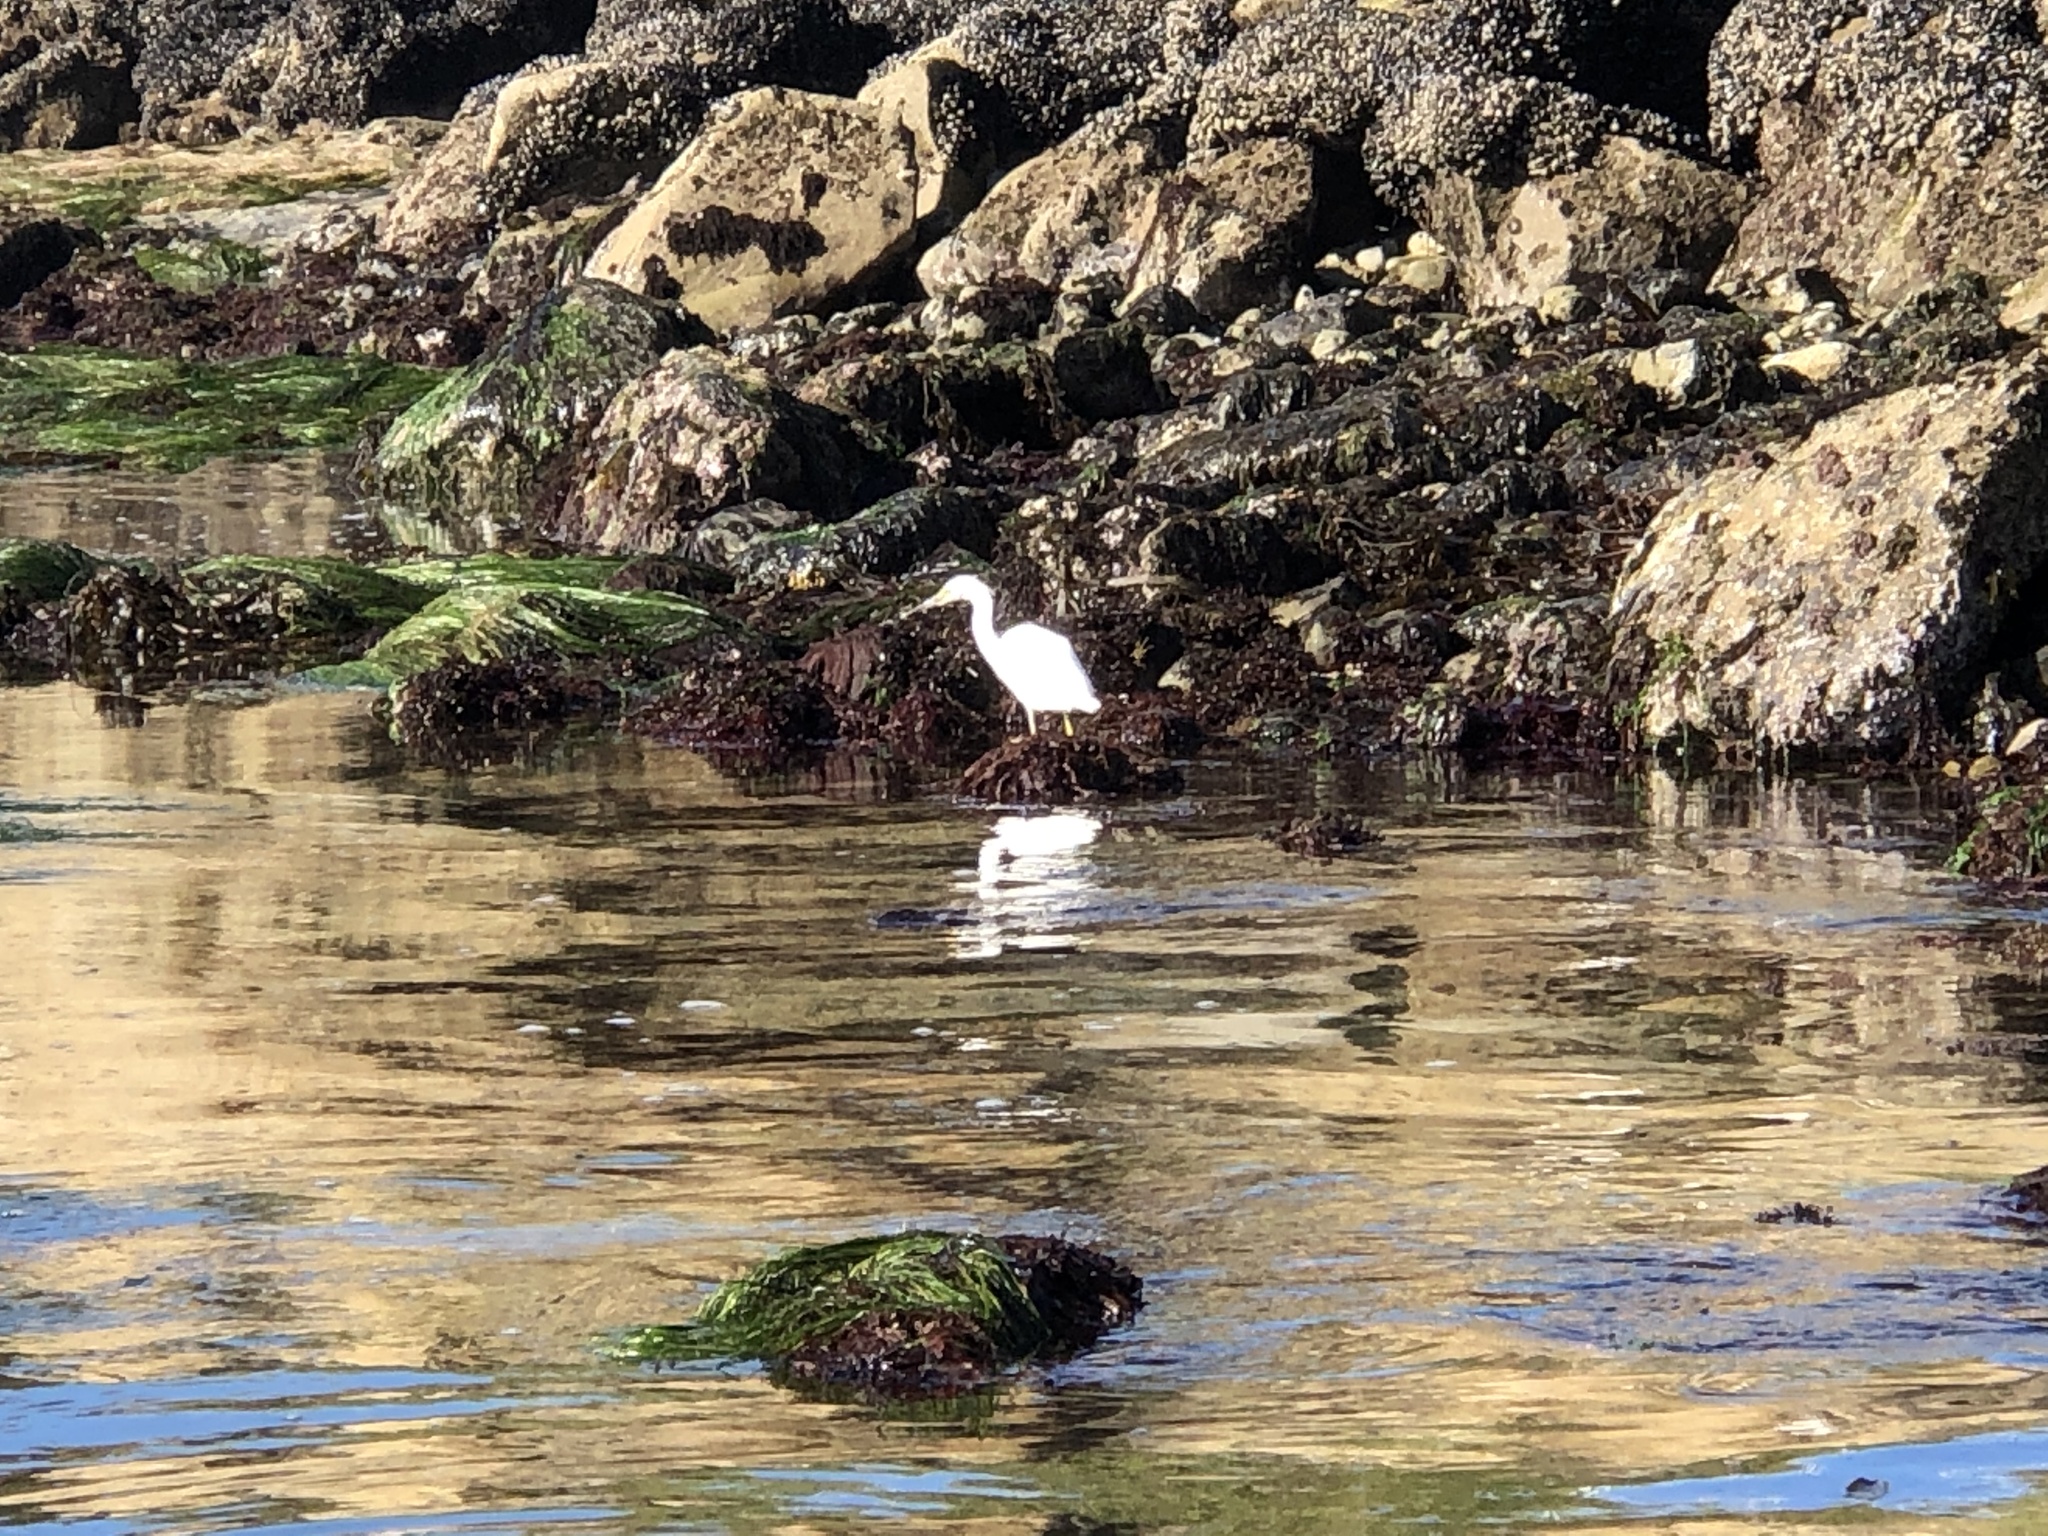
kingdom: Animalia
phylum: Chordata
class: Aves
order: Pelecaniformes
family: Ardeidae
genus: Egretta
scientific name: Egretta thula
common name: Snowy egret
